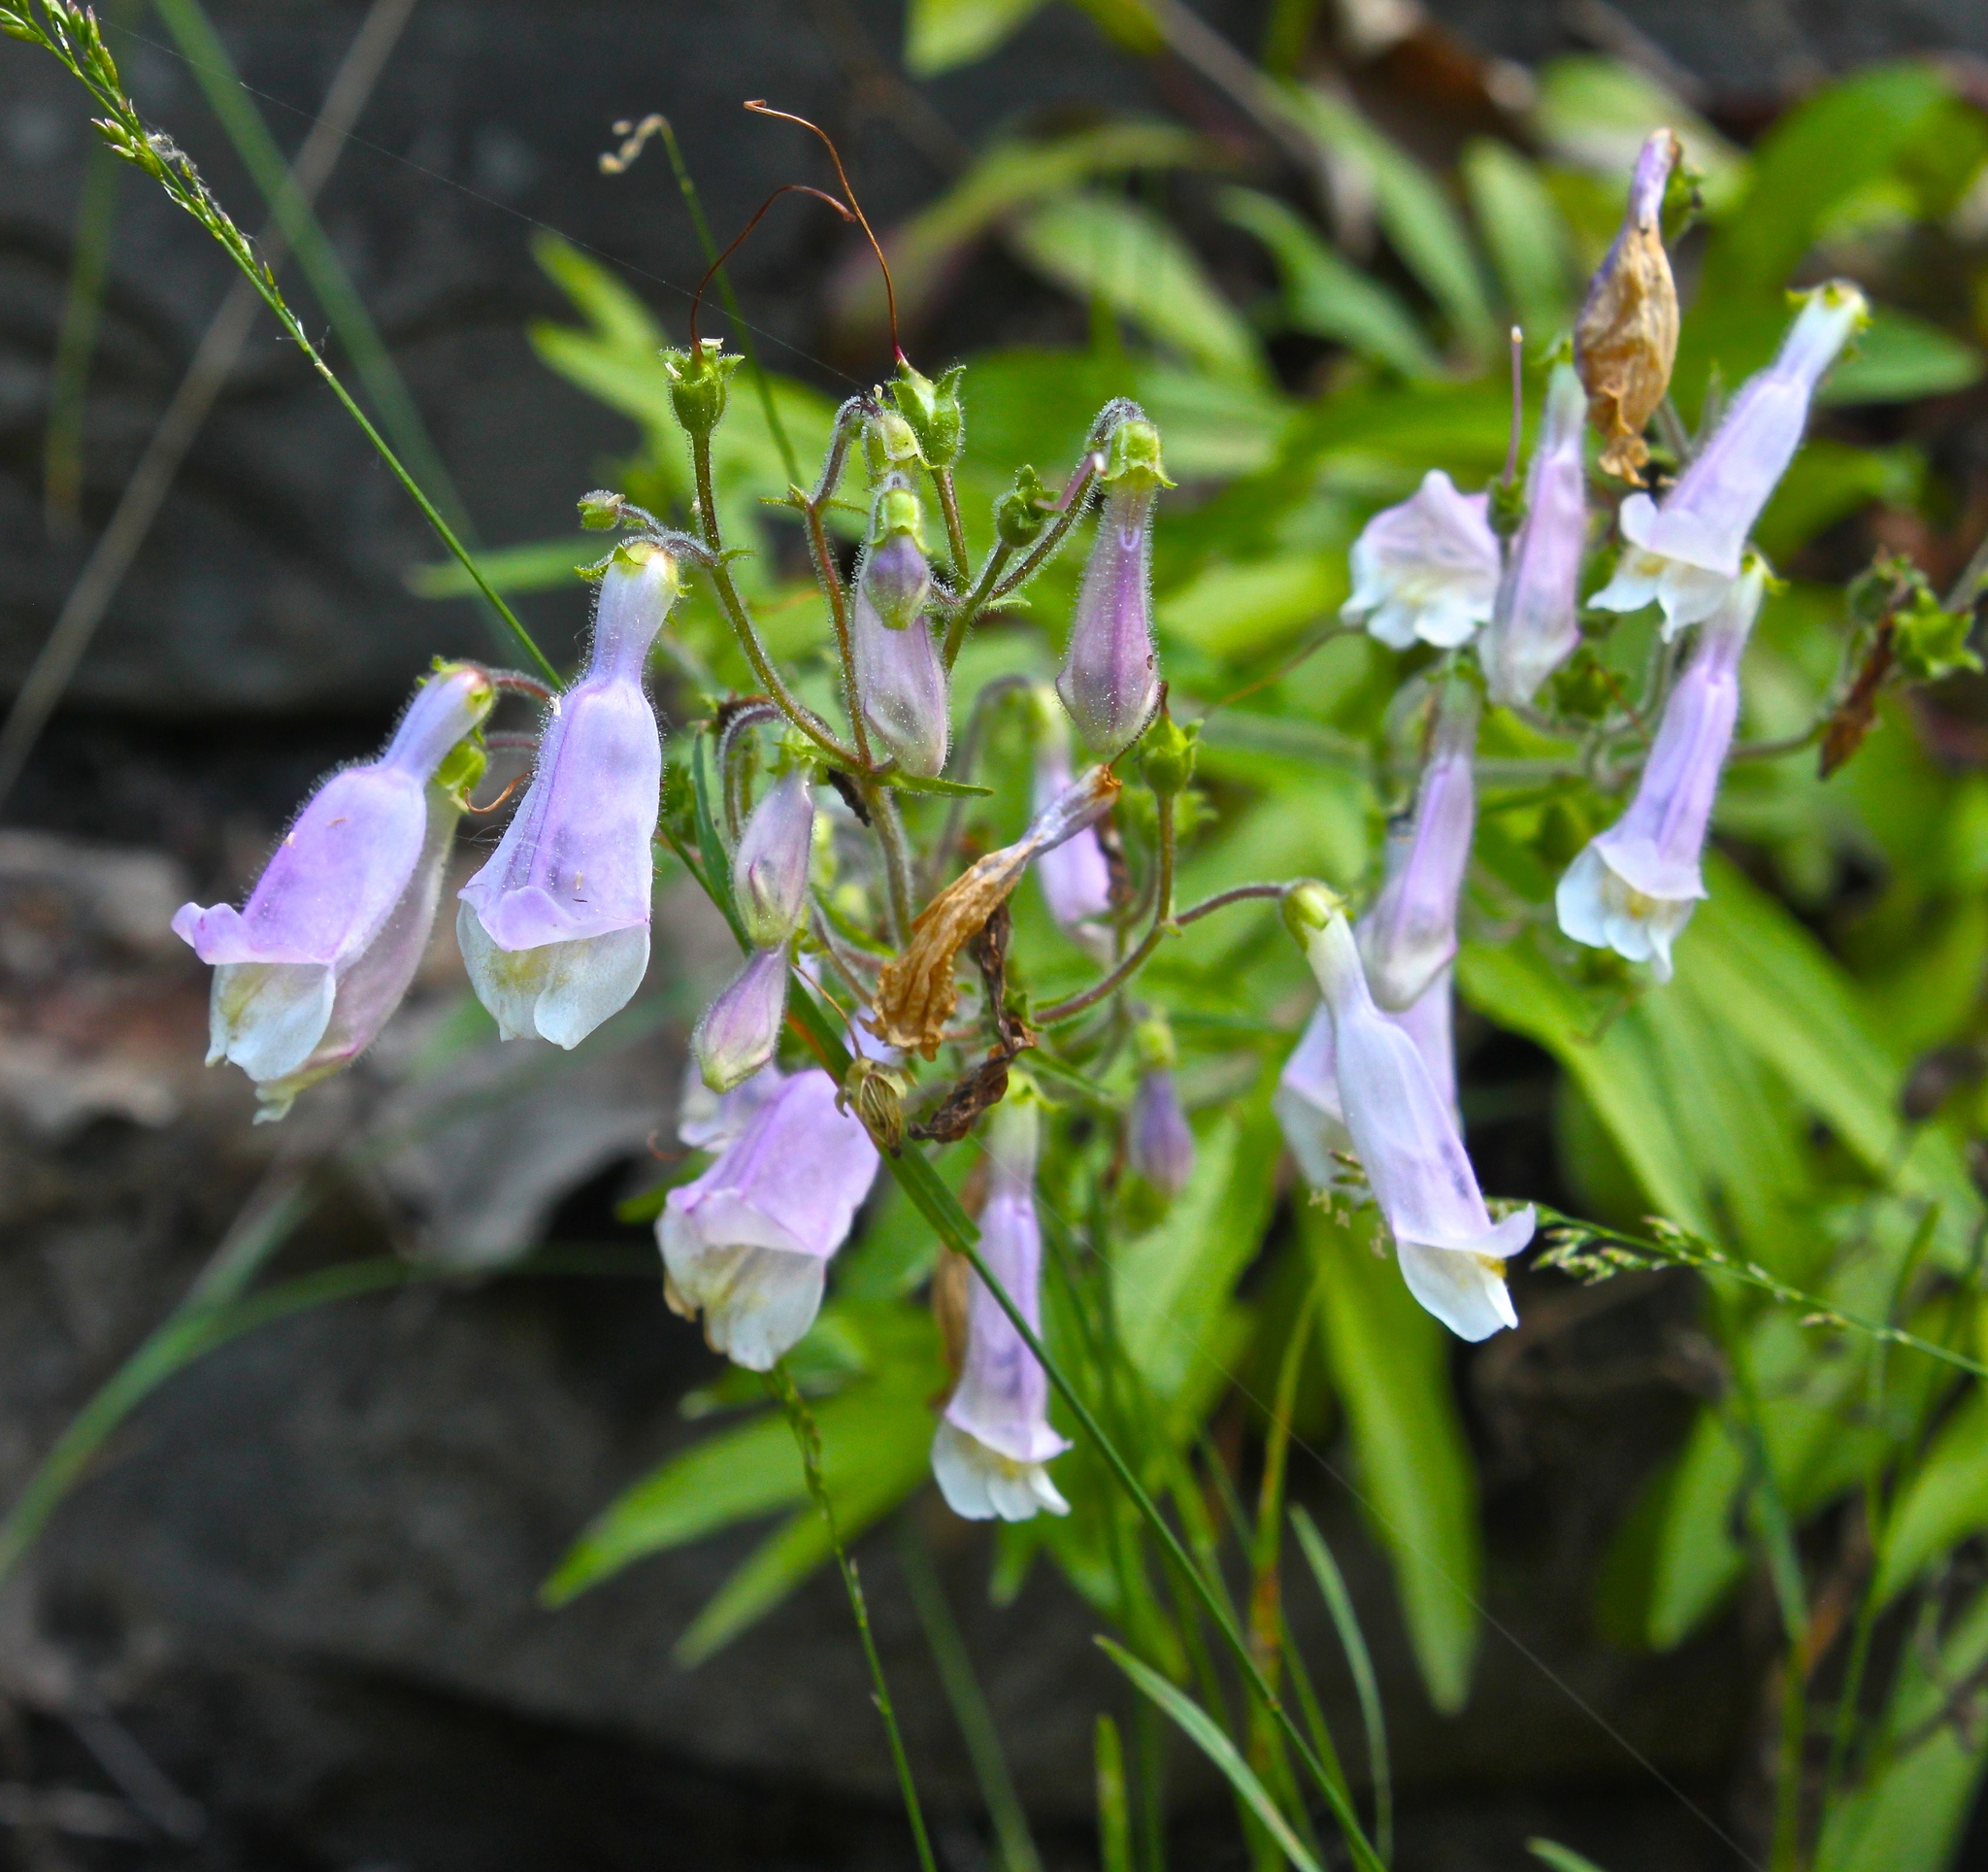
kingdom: Plantae
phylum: Tracheophyta
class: Magnoliopsida
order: Lamiales
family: Plantaginaceae
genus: Penstemon
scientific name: Penstemon hirsutus
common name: Hairy beardtongue
